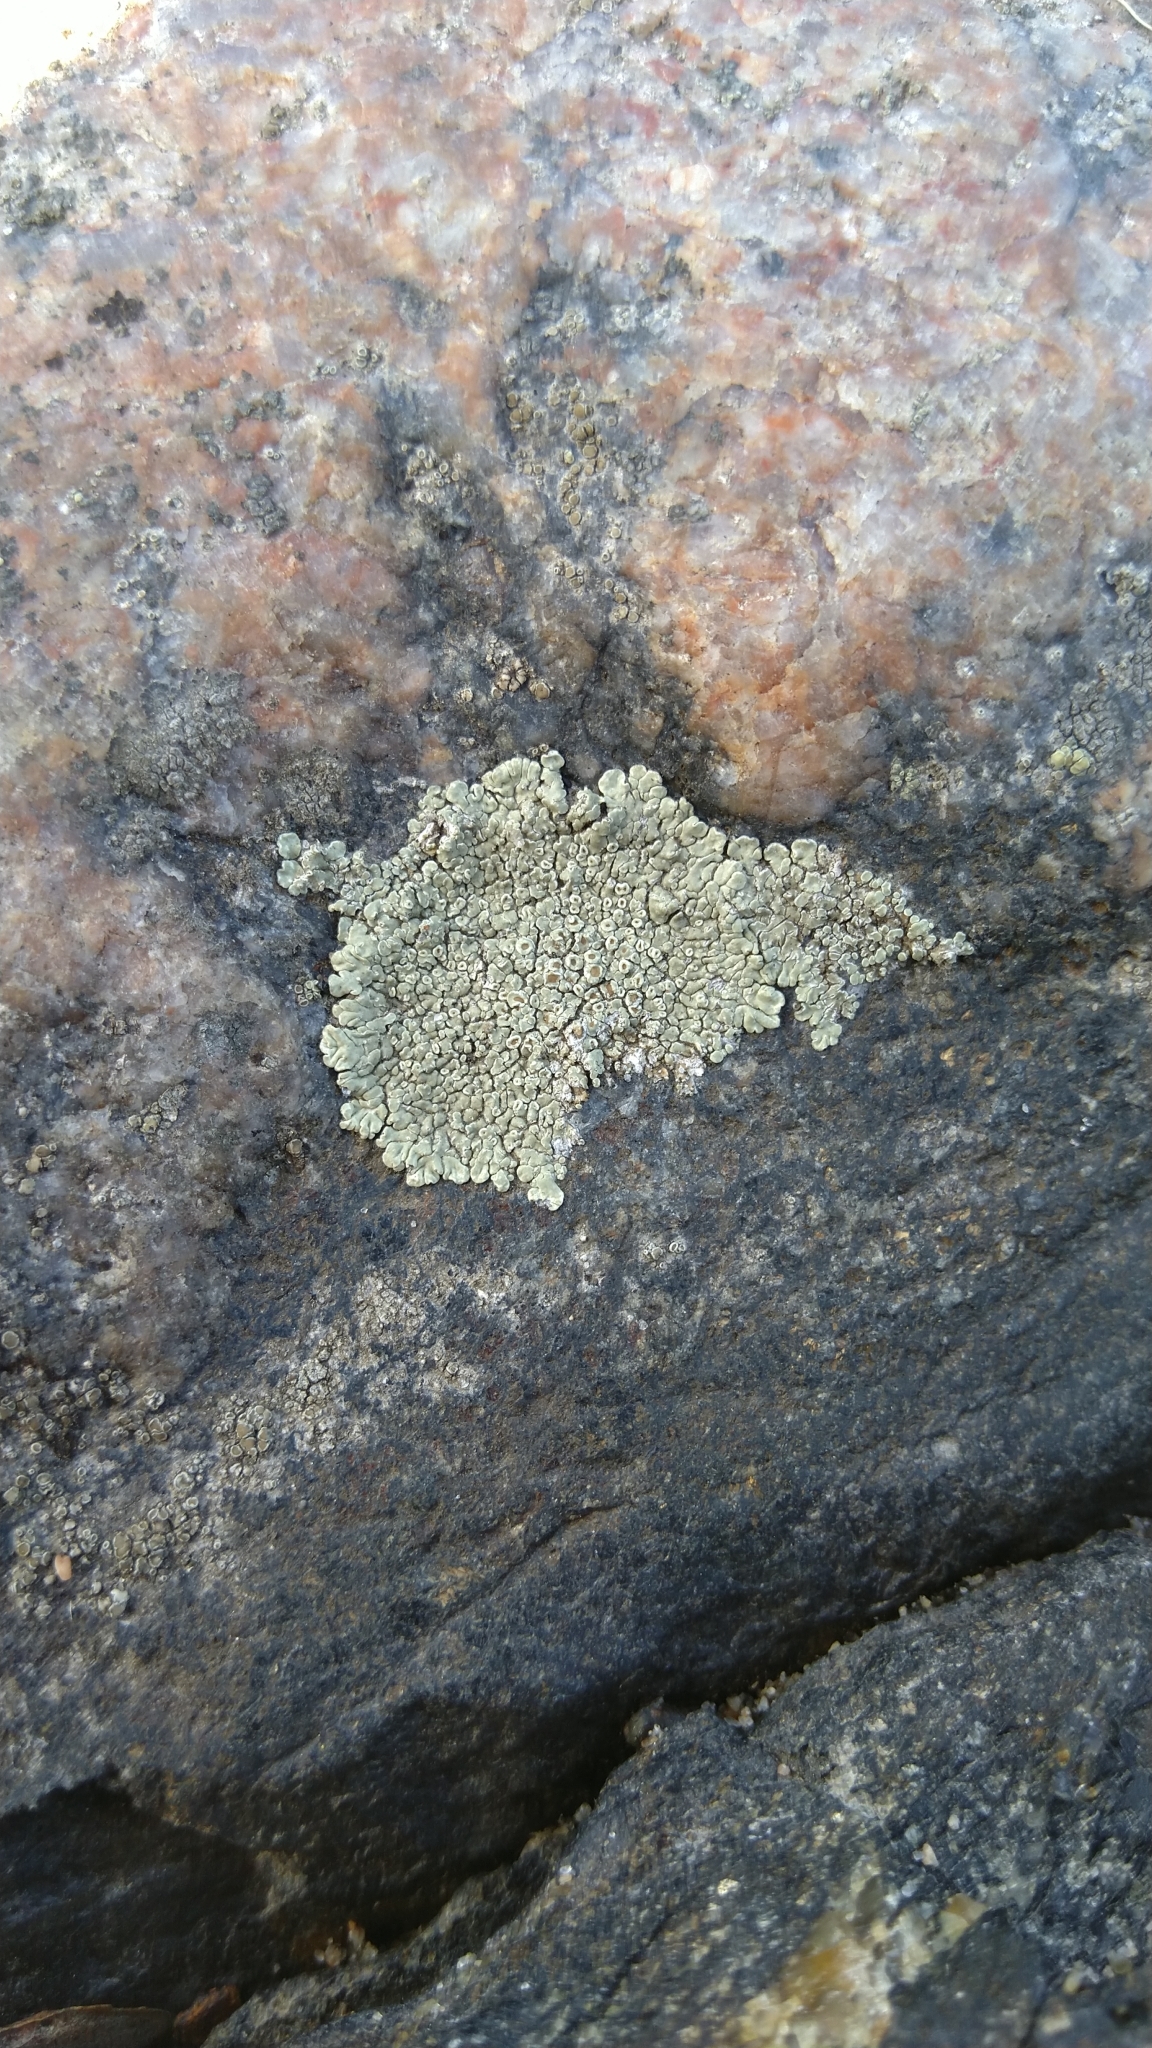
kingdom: Fungi
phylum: Ascomycota
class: Lecanoromycetes
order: Lecanorales
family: Lecanoraceae
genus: Protoparmeliopsis
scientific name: Protoparmeliopsis muralis
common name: Stonewall rim lichen
